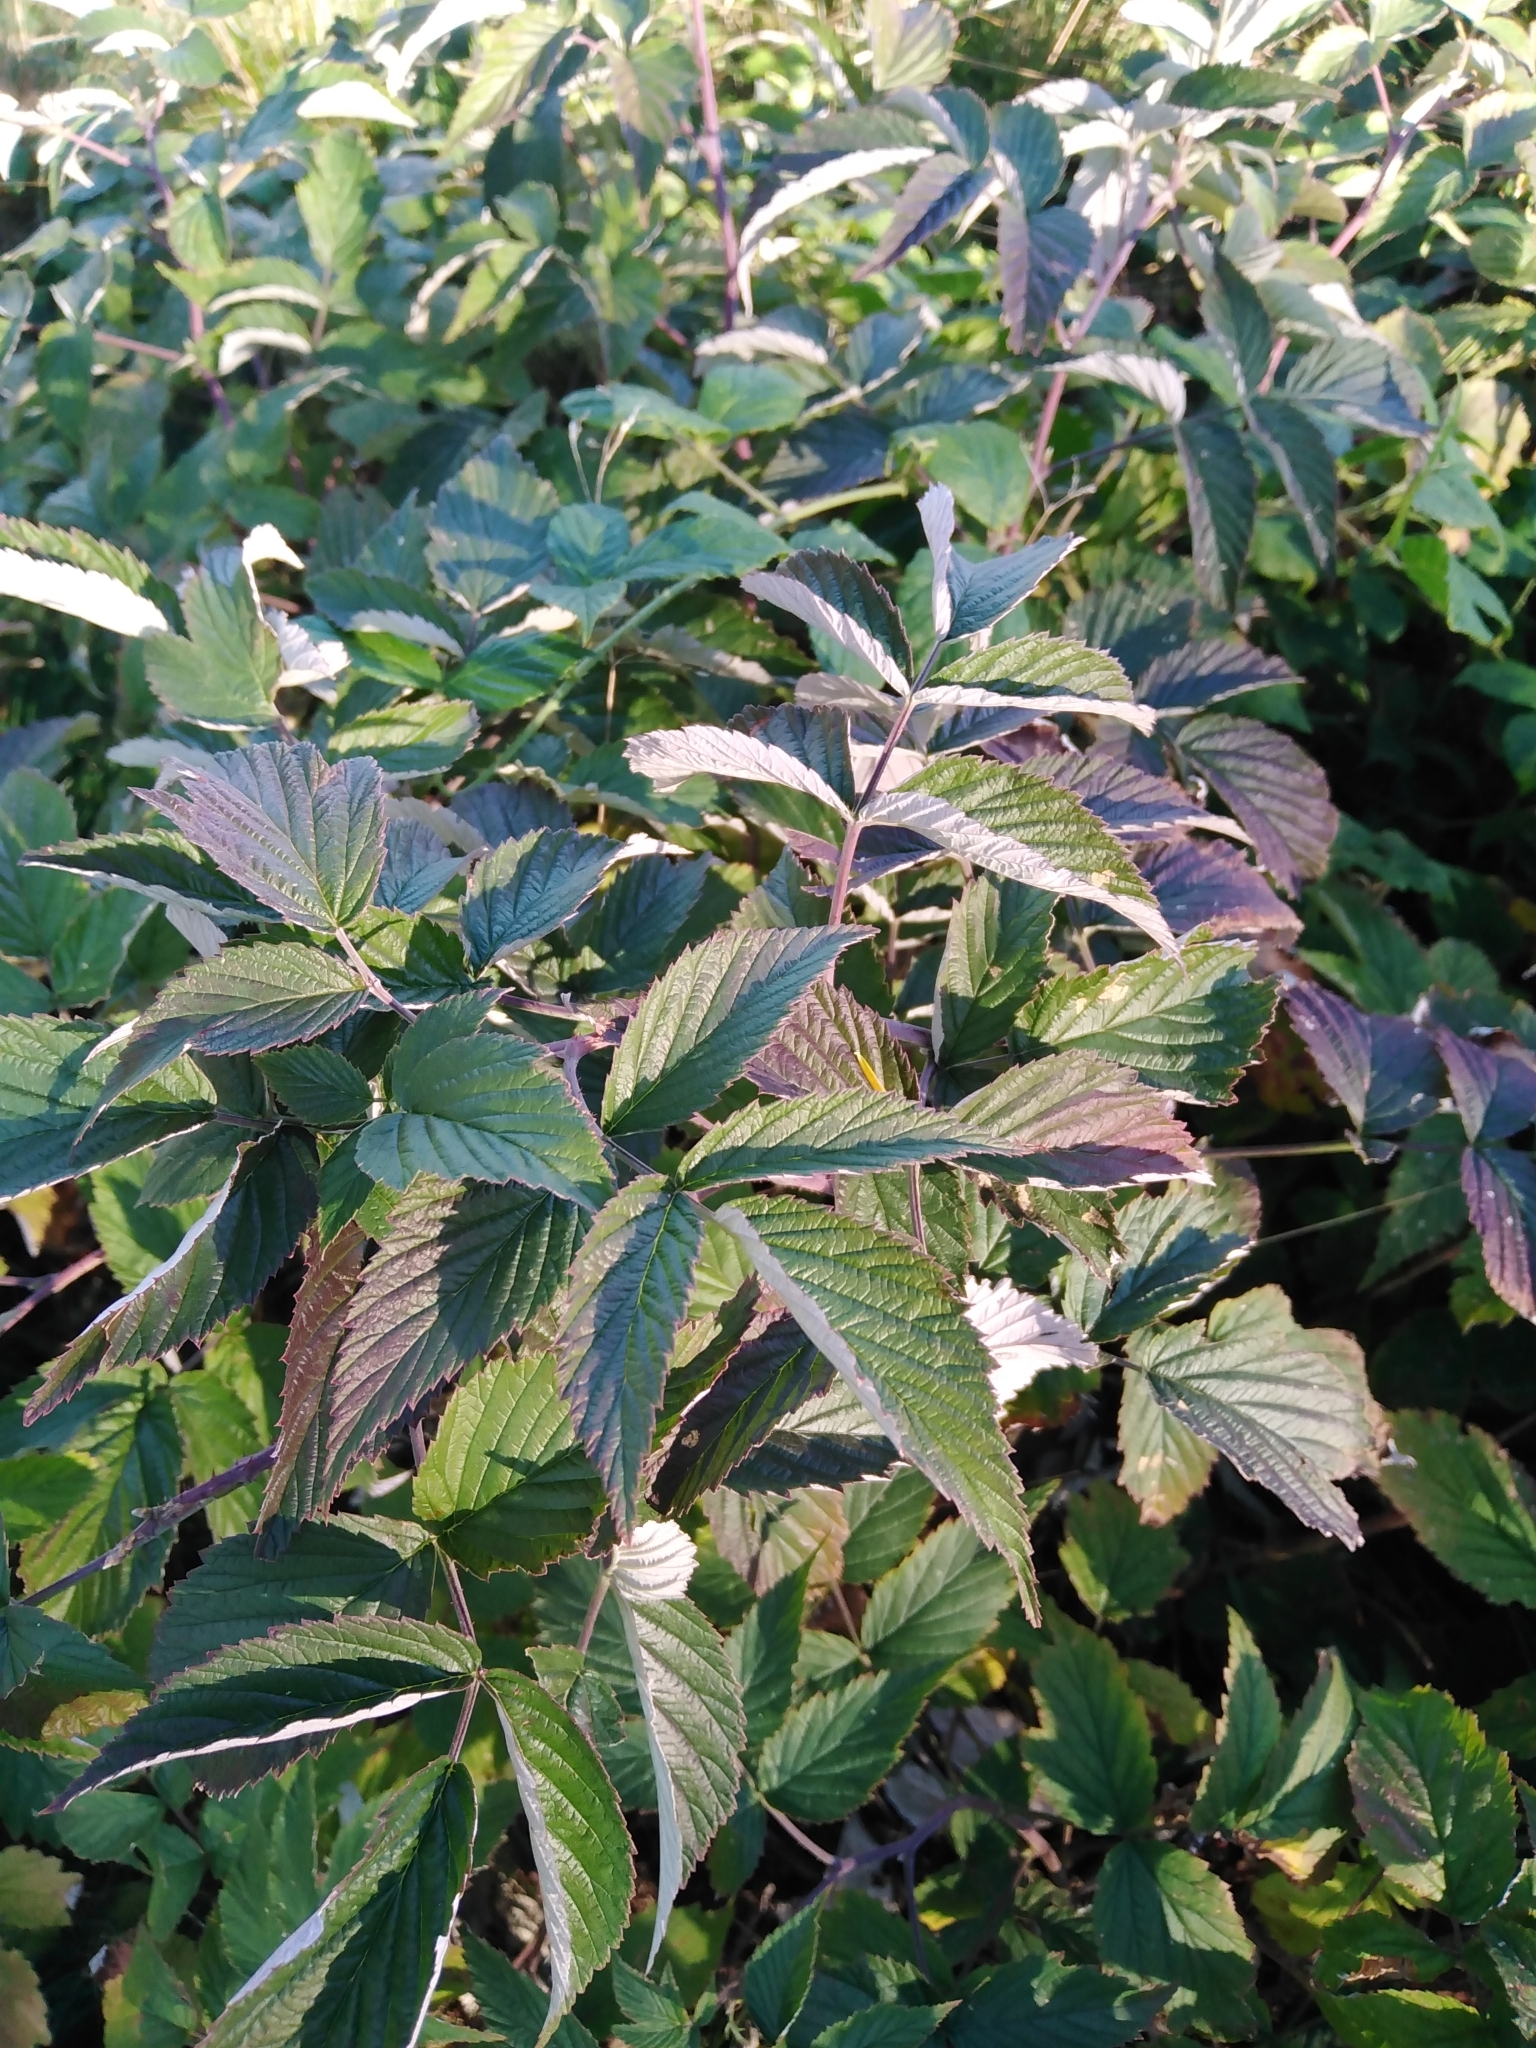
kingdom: Plantae
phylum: Tracheophyta
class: Magnoliopsida
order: Rosales
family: Rosaceae
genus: Rubus
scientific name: Rubus idaeus
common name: Raspberry
